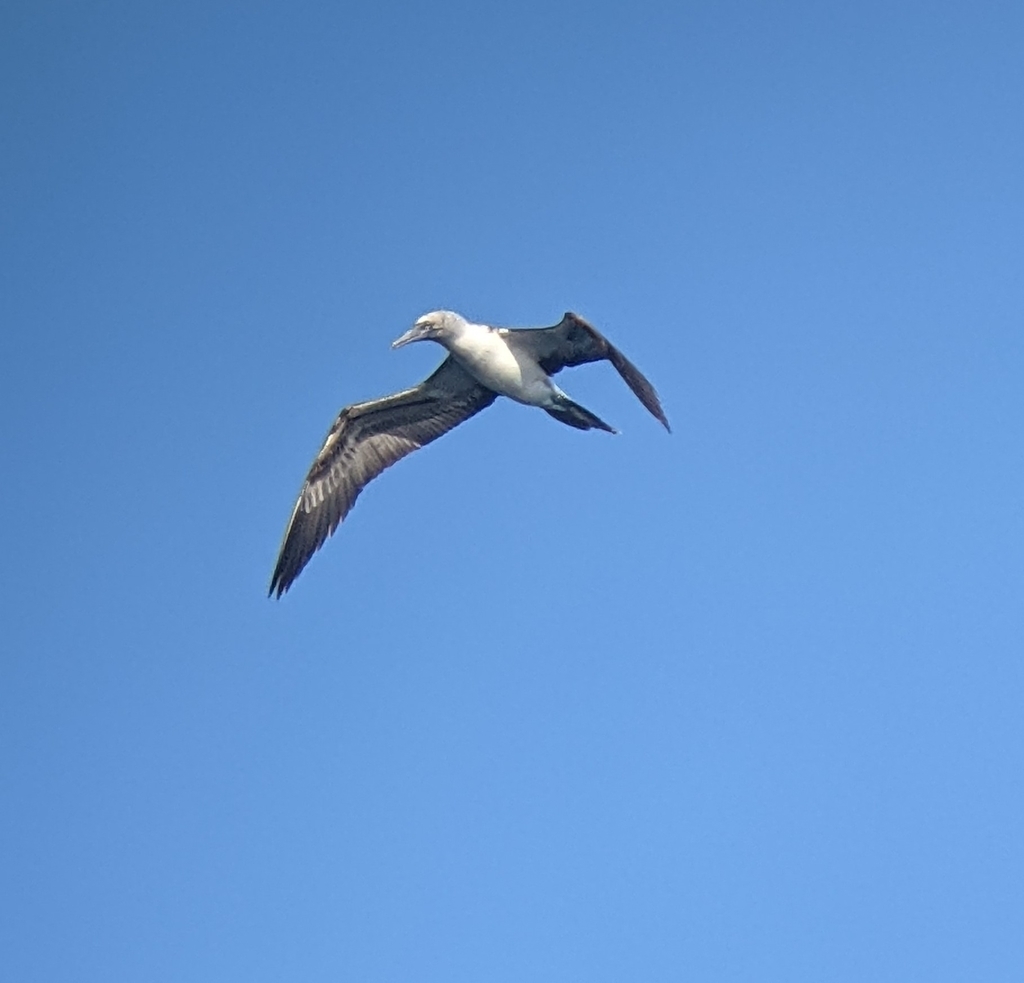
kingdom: Animalia
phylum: Chordata
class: Aves
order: Suliformes
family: Sulidae
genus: Sula
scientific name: Sula nebouxii
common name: Blue-footed booby
